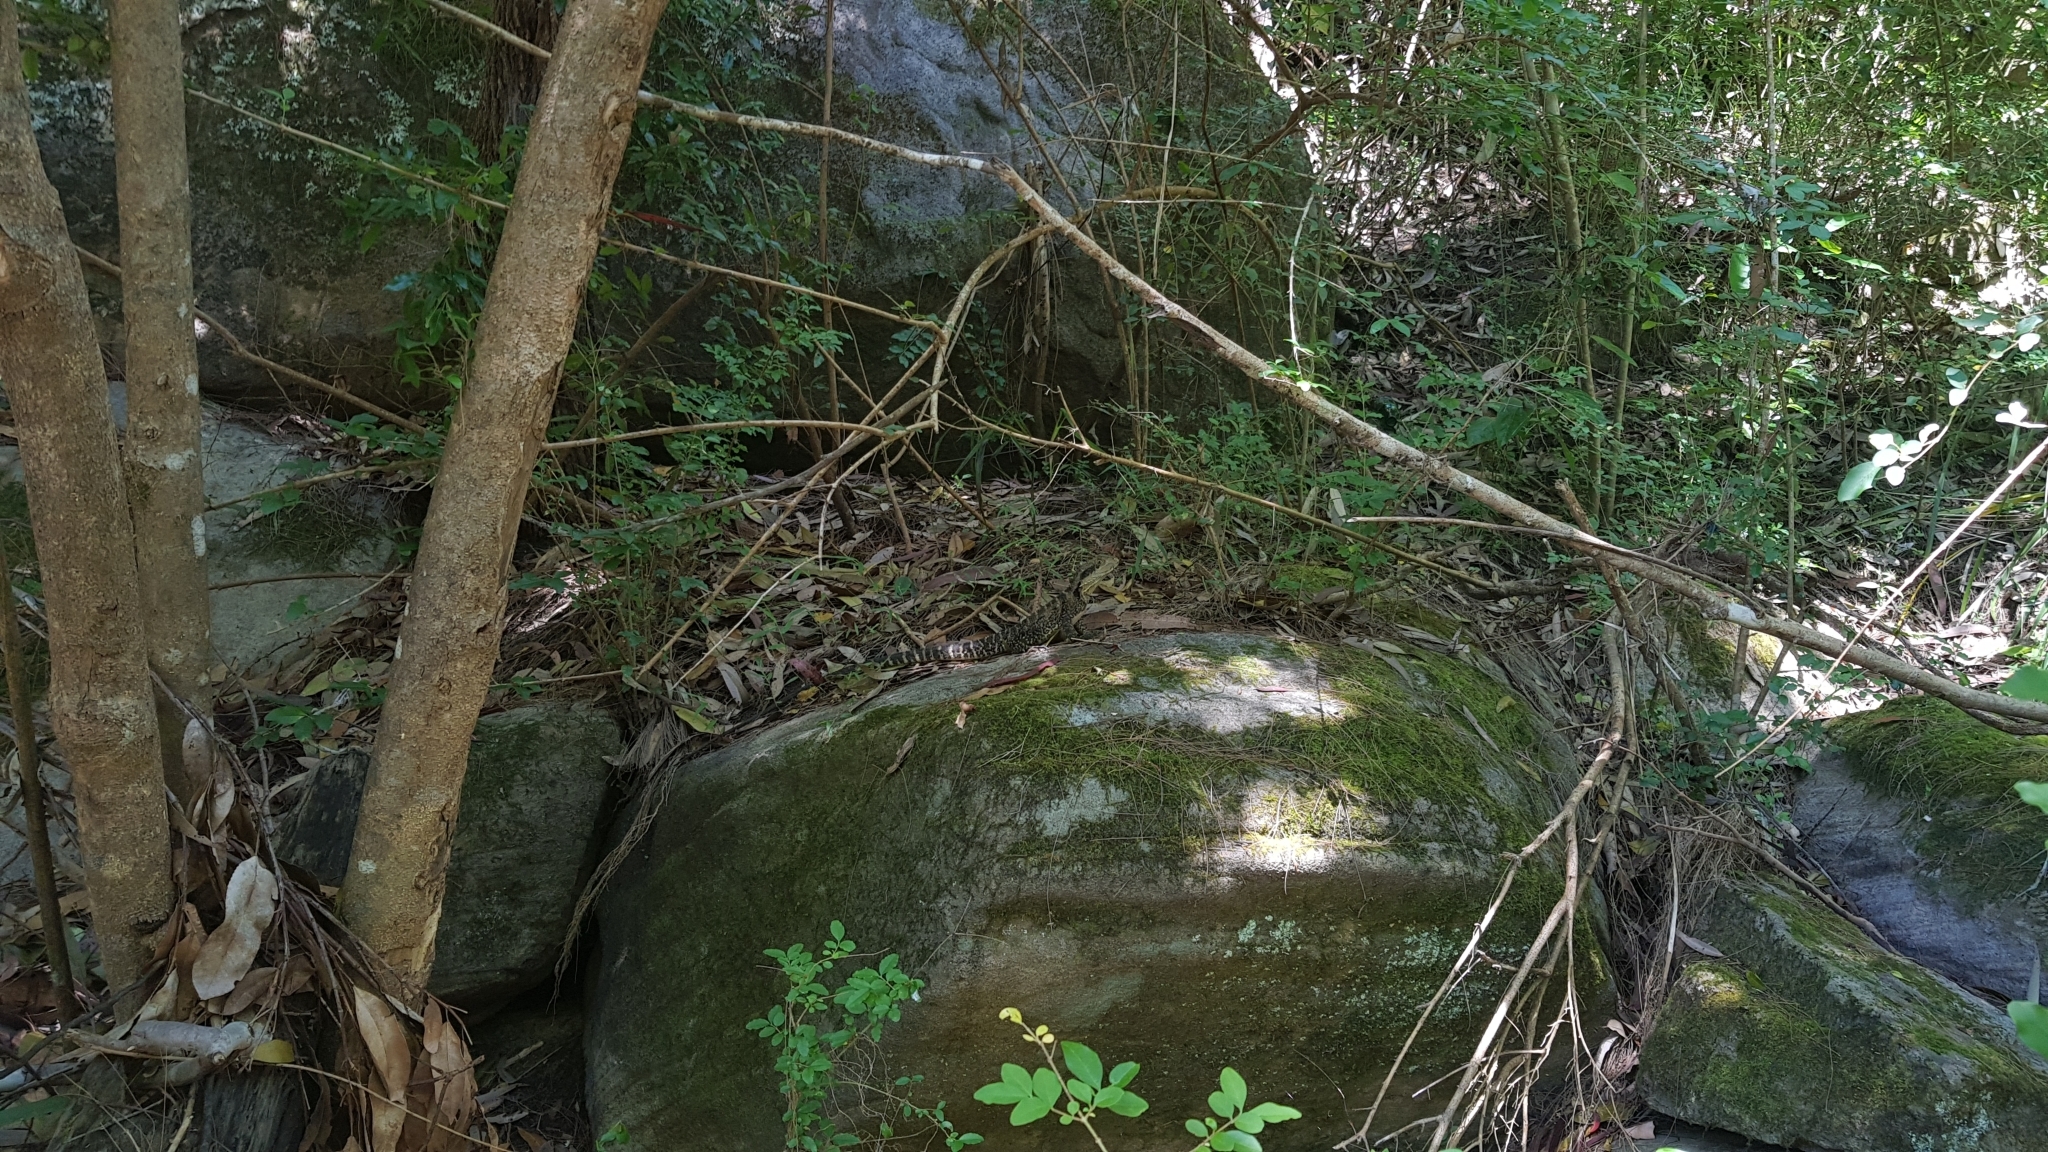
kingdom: Animalia
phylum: Chordata
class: Squamata
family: Agamidae
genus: Intellagama
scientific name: Intellagama lesueurii
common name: Eastern water dragon
